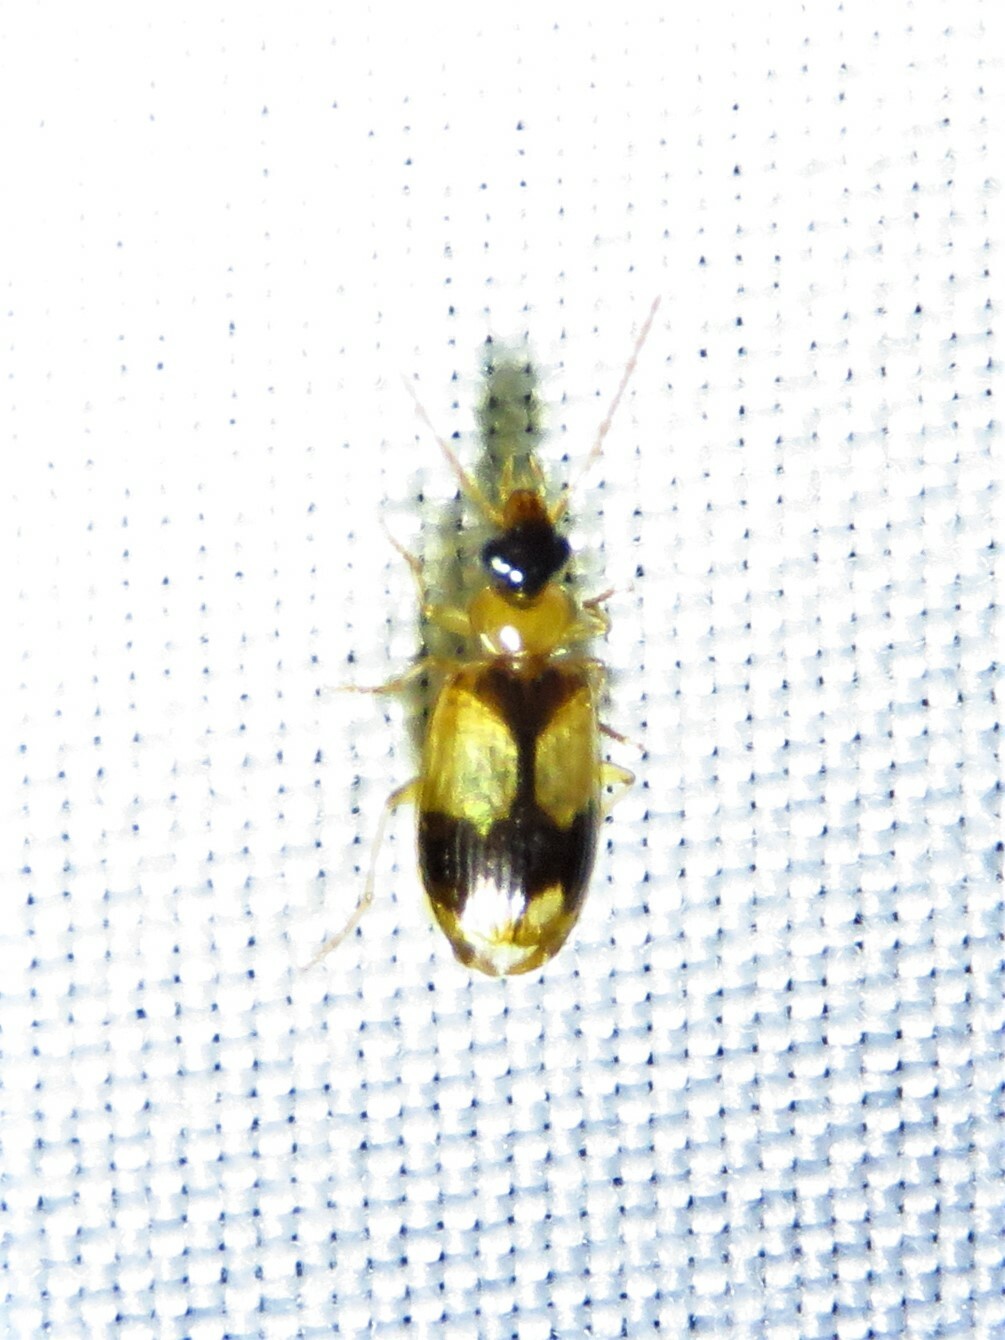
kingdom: Animalia
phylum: Arthropoda
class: Insecta
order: Coleoptera
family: Carabidae
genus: Lebia
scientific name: Lebia esurialis
